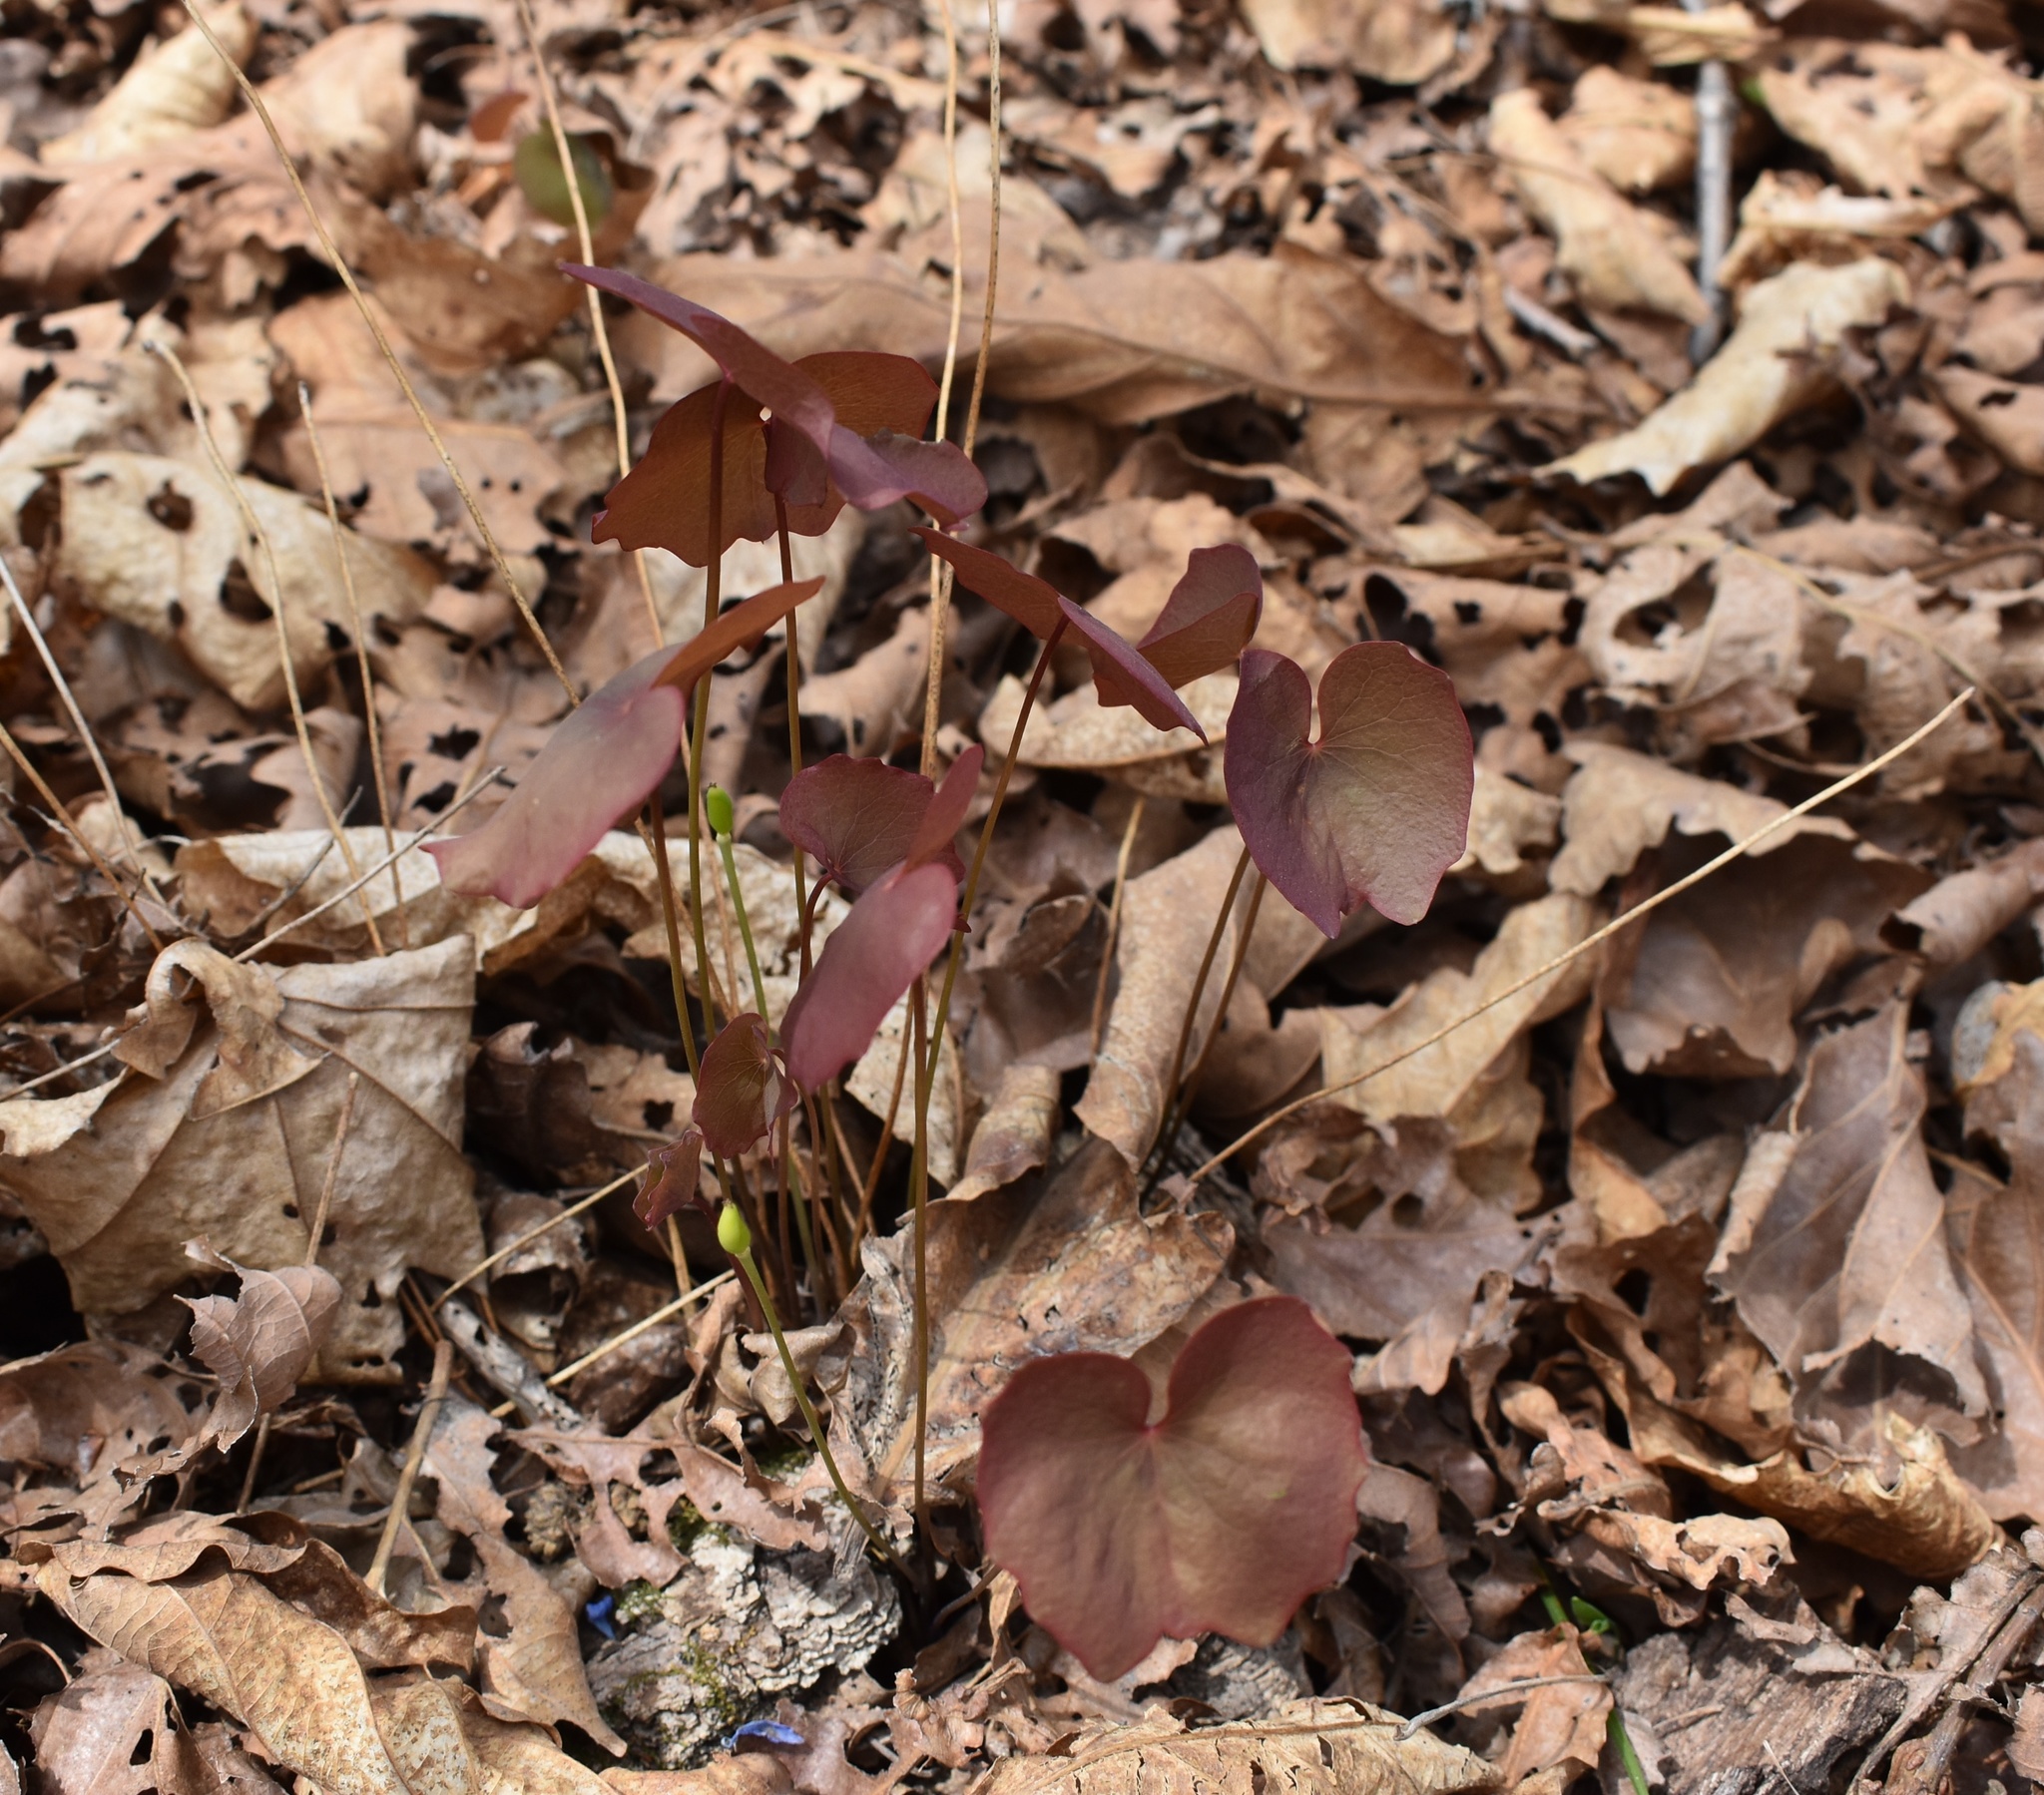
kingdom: Plantae
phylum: Tracheophyta
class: Magnoliopsida
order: Ranunculales
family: Berberidaceae
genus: Plagiorhegma
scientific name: Plagiorhegma dubium
